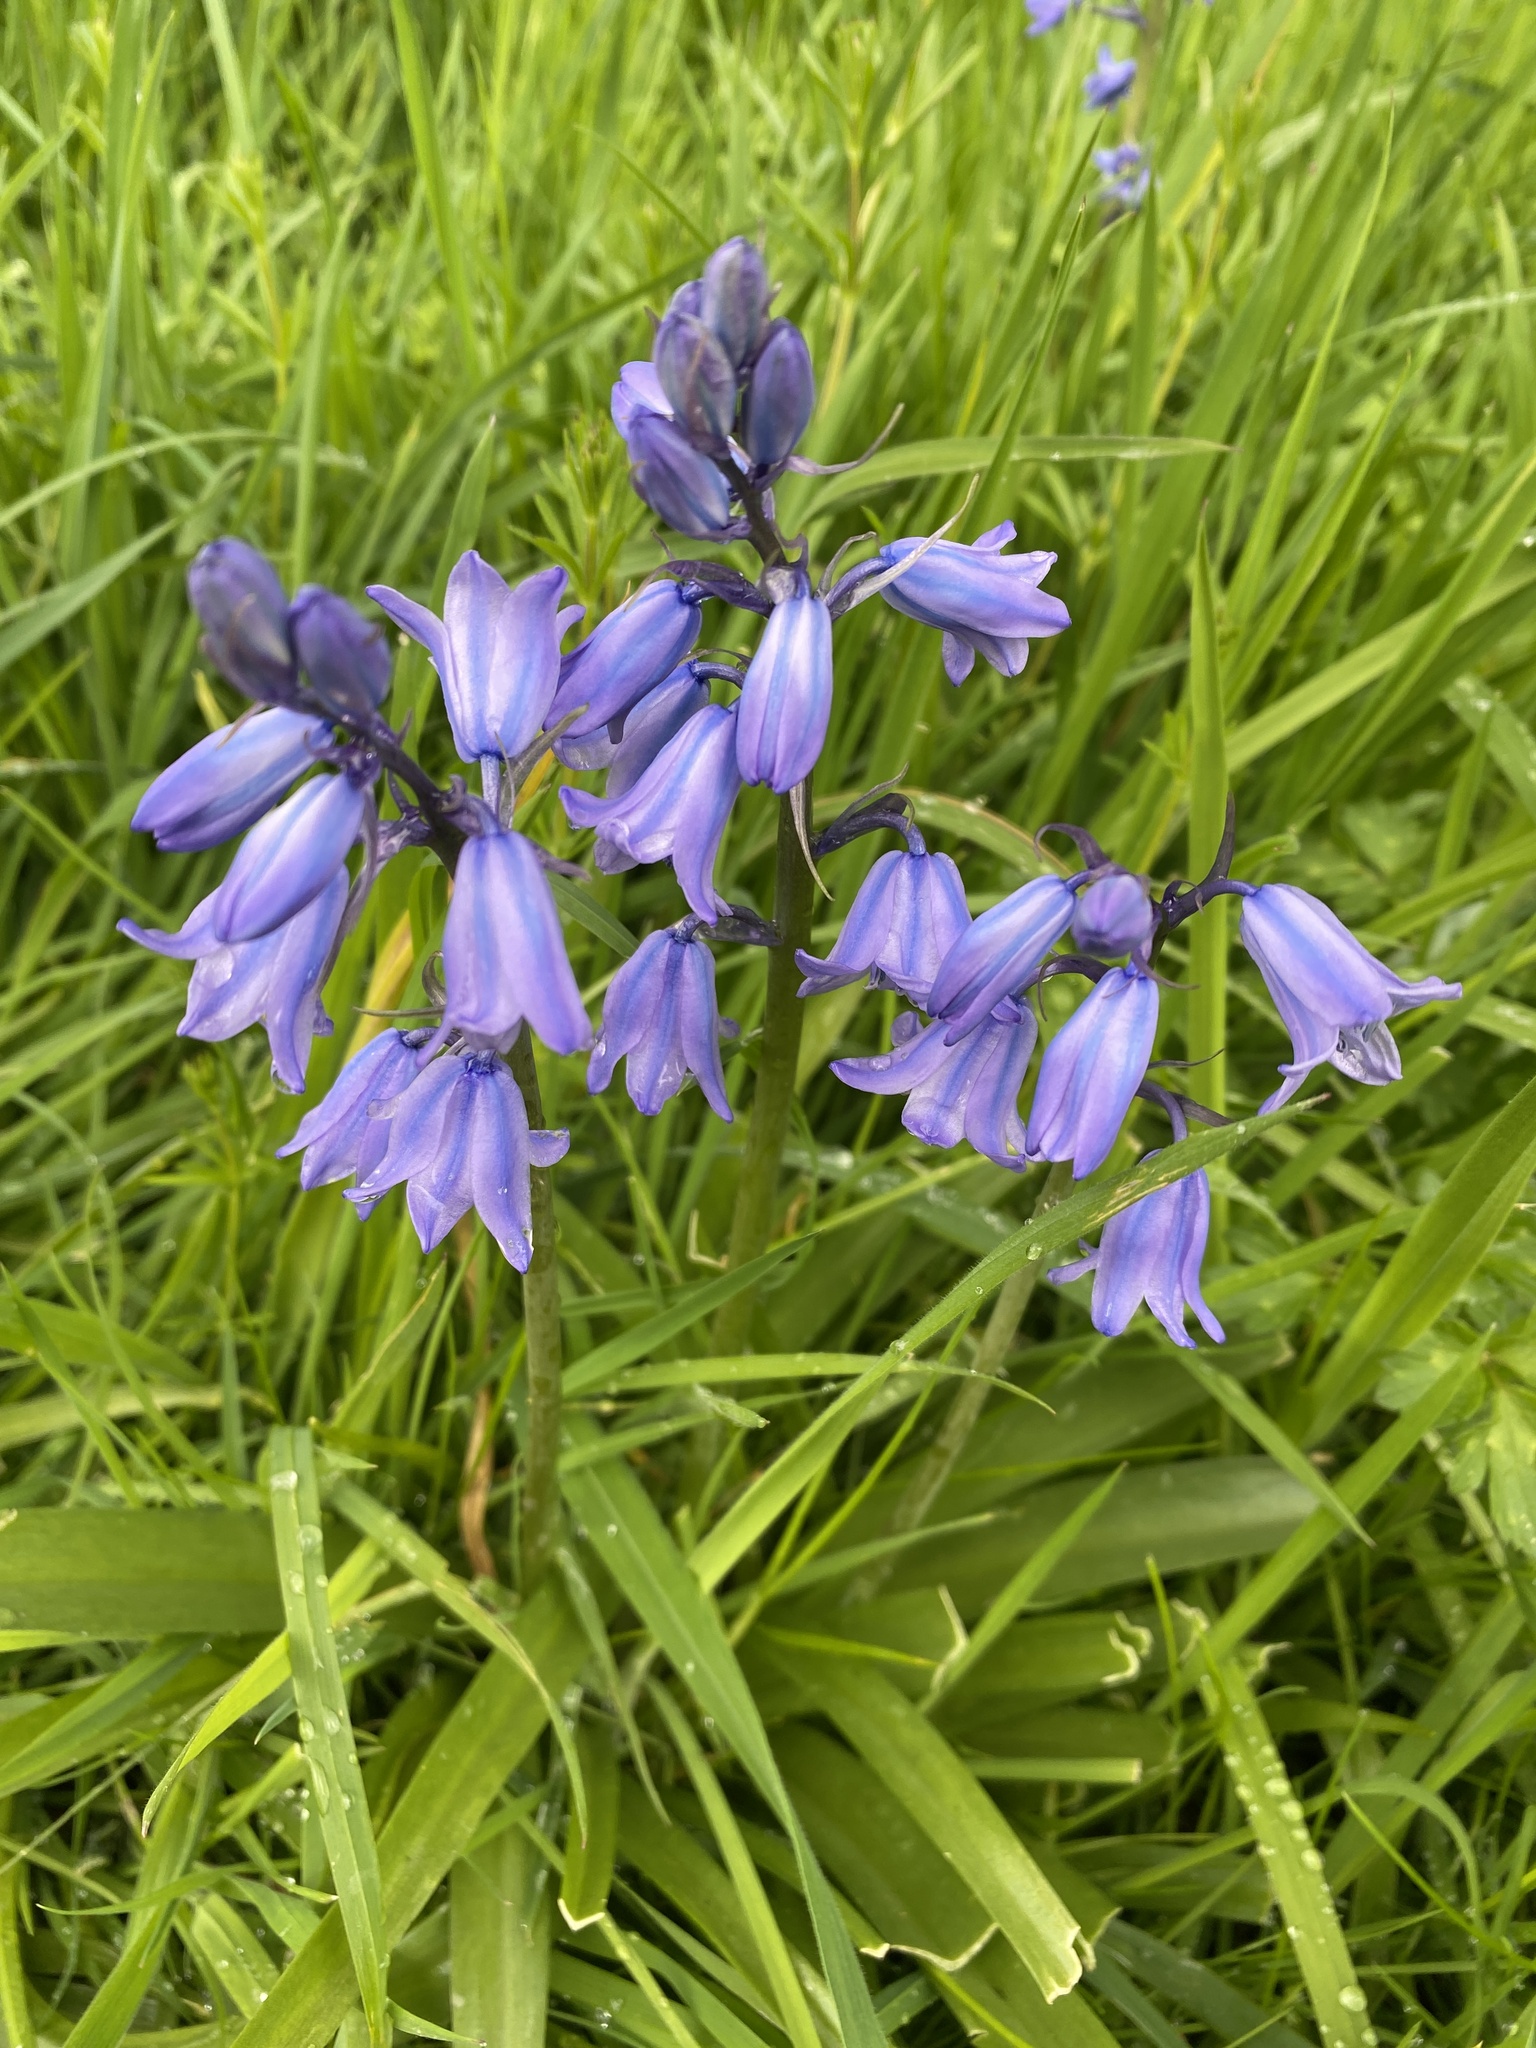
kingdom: Plantae
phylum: Tracheophyta
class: Liliopsida
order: Asparagales
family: Asparagaceae
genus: Hyacinthoides
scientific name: Hyacinthoides massartiana
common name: Hyacinthoides
